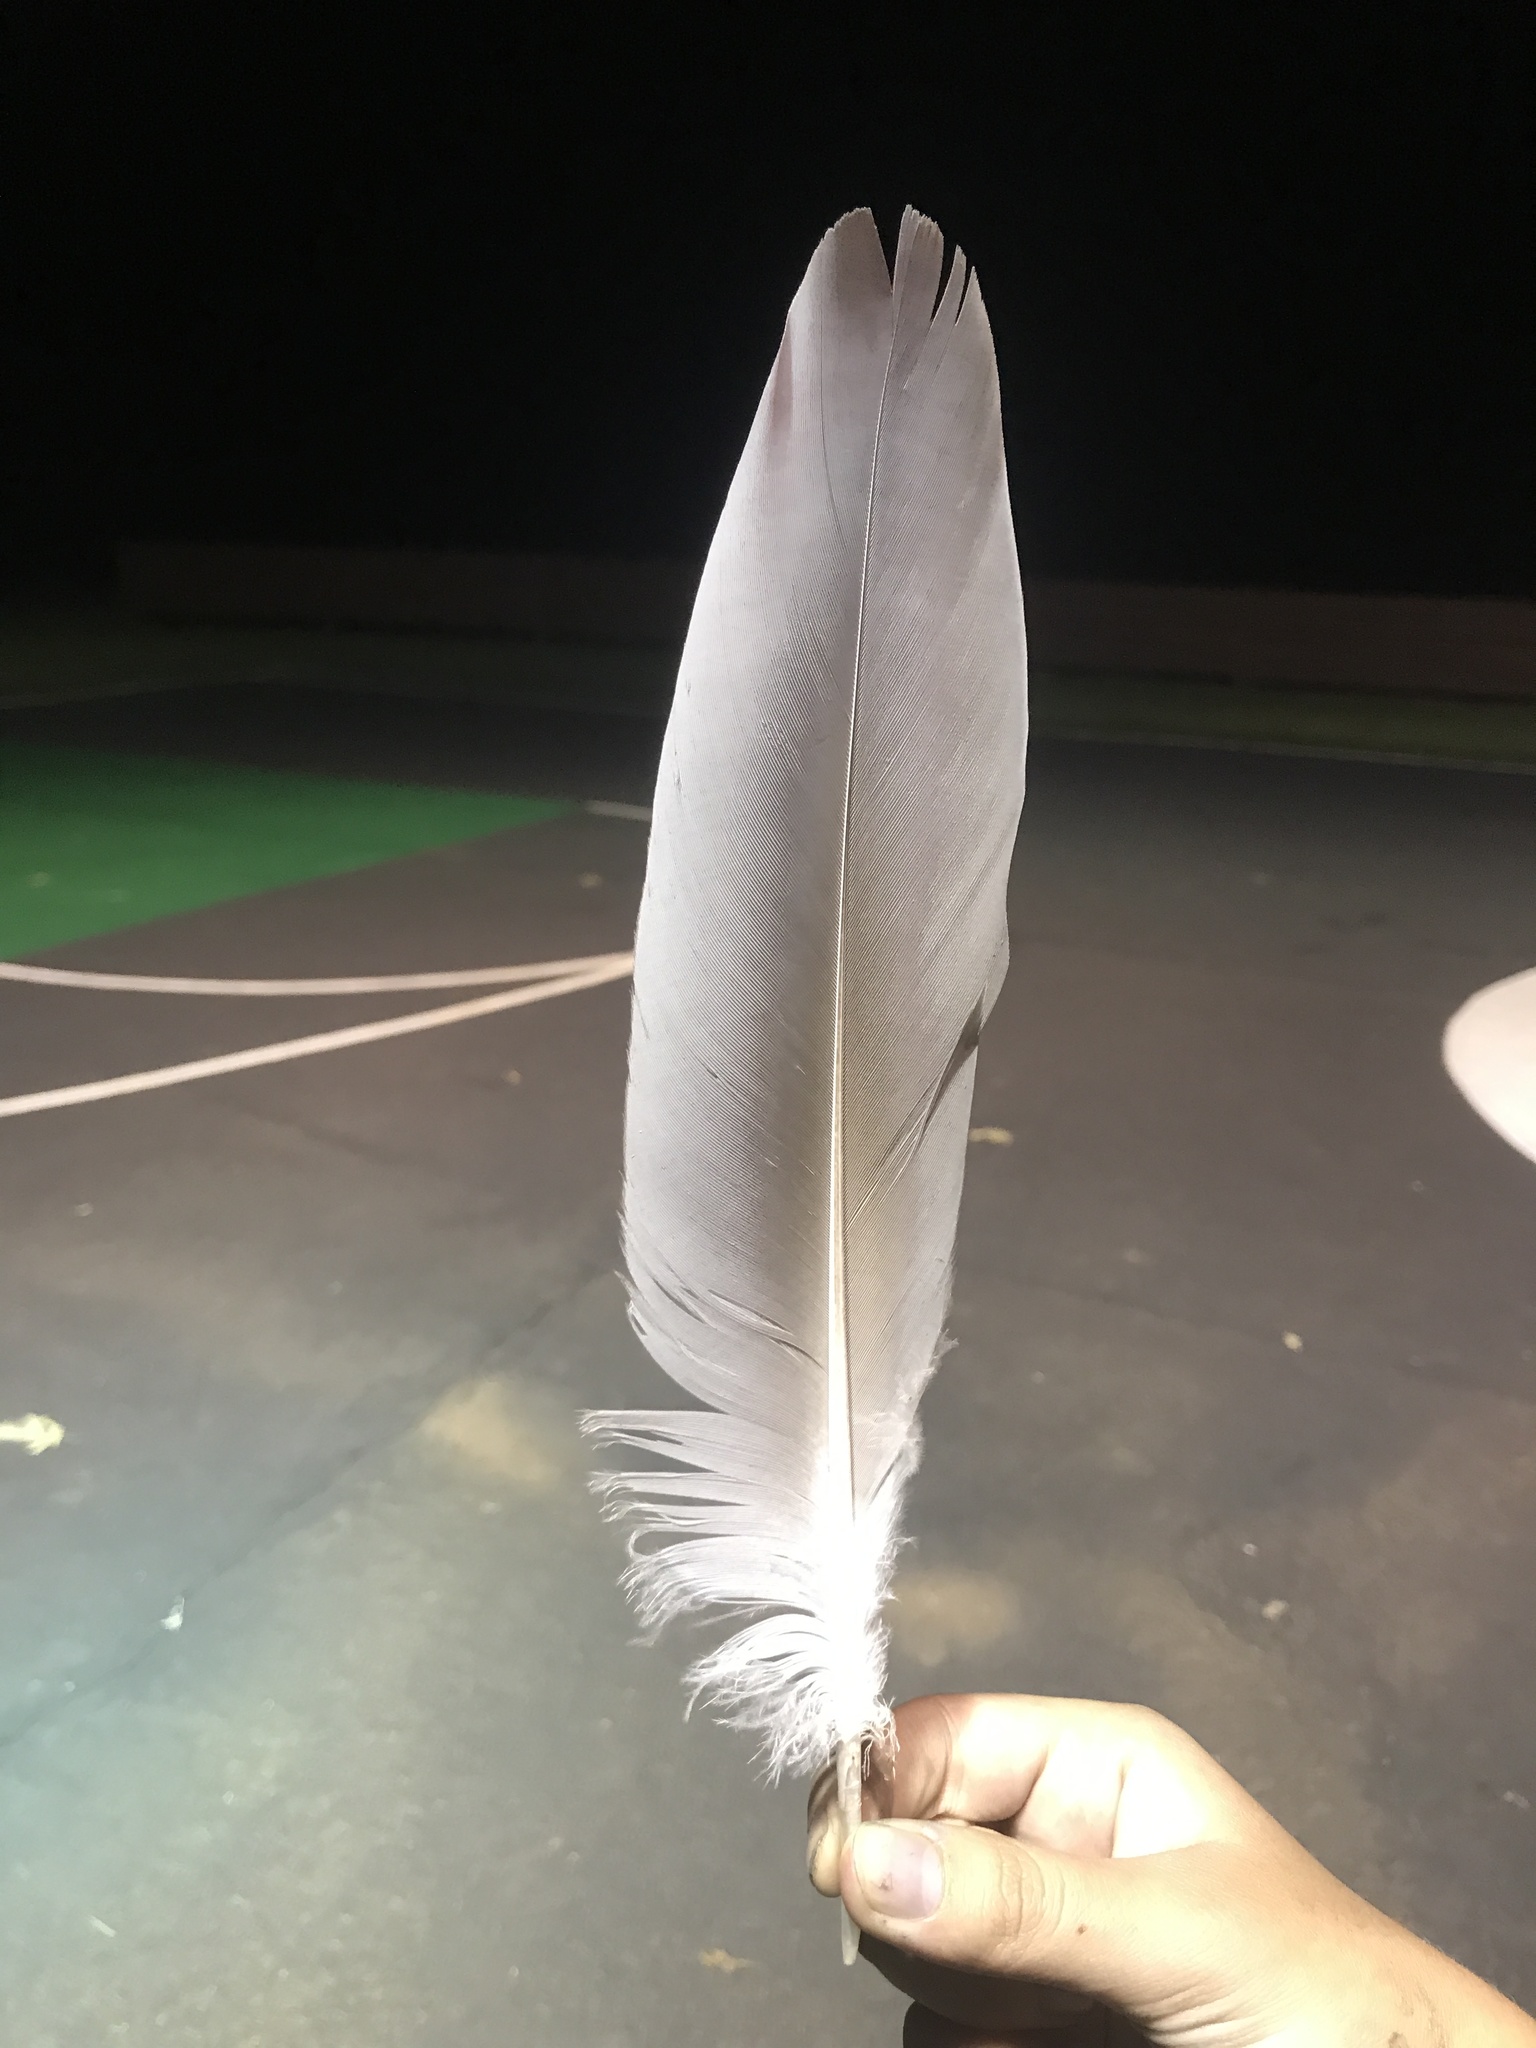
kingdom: Animalia
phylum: Chordata
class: Aves
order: Pelecaniformes
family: Ardeidae
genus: Ardea
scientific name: Ardea herodias
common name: Great blue heron
